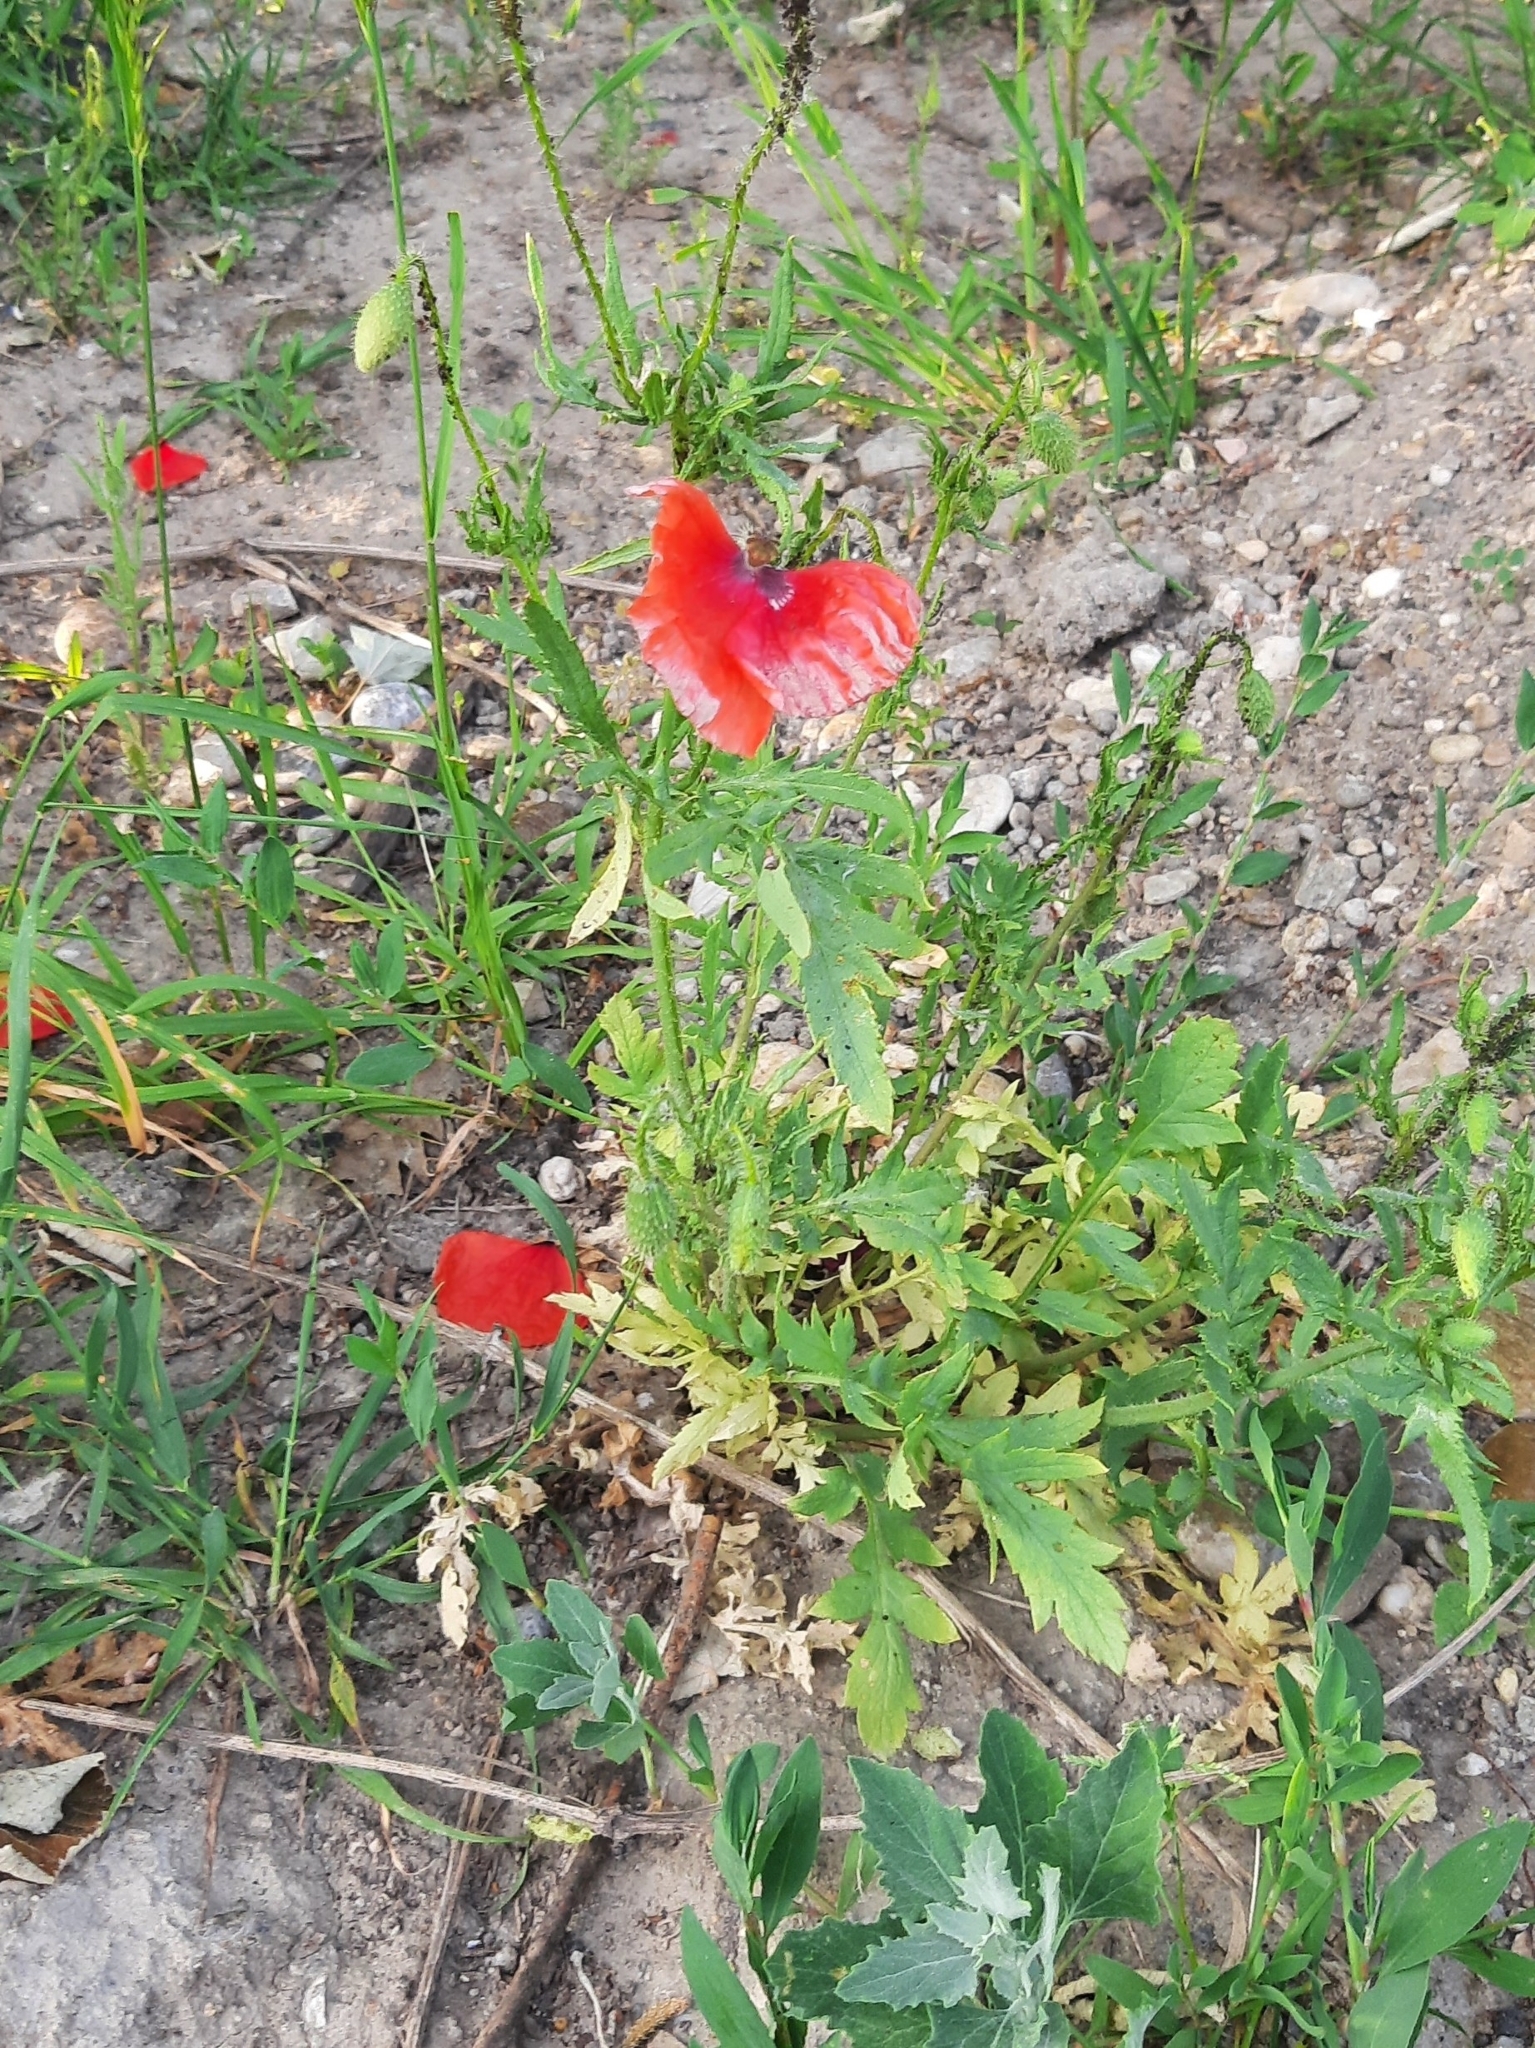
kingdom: Plantae
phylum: Tracheophyta
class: Magnoliopsida
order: Ranunculales
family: Papaveraceae
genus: Papaver
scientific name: Papaver rhoeas
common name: Corn poppy
